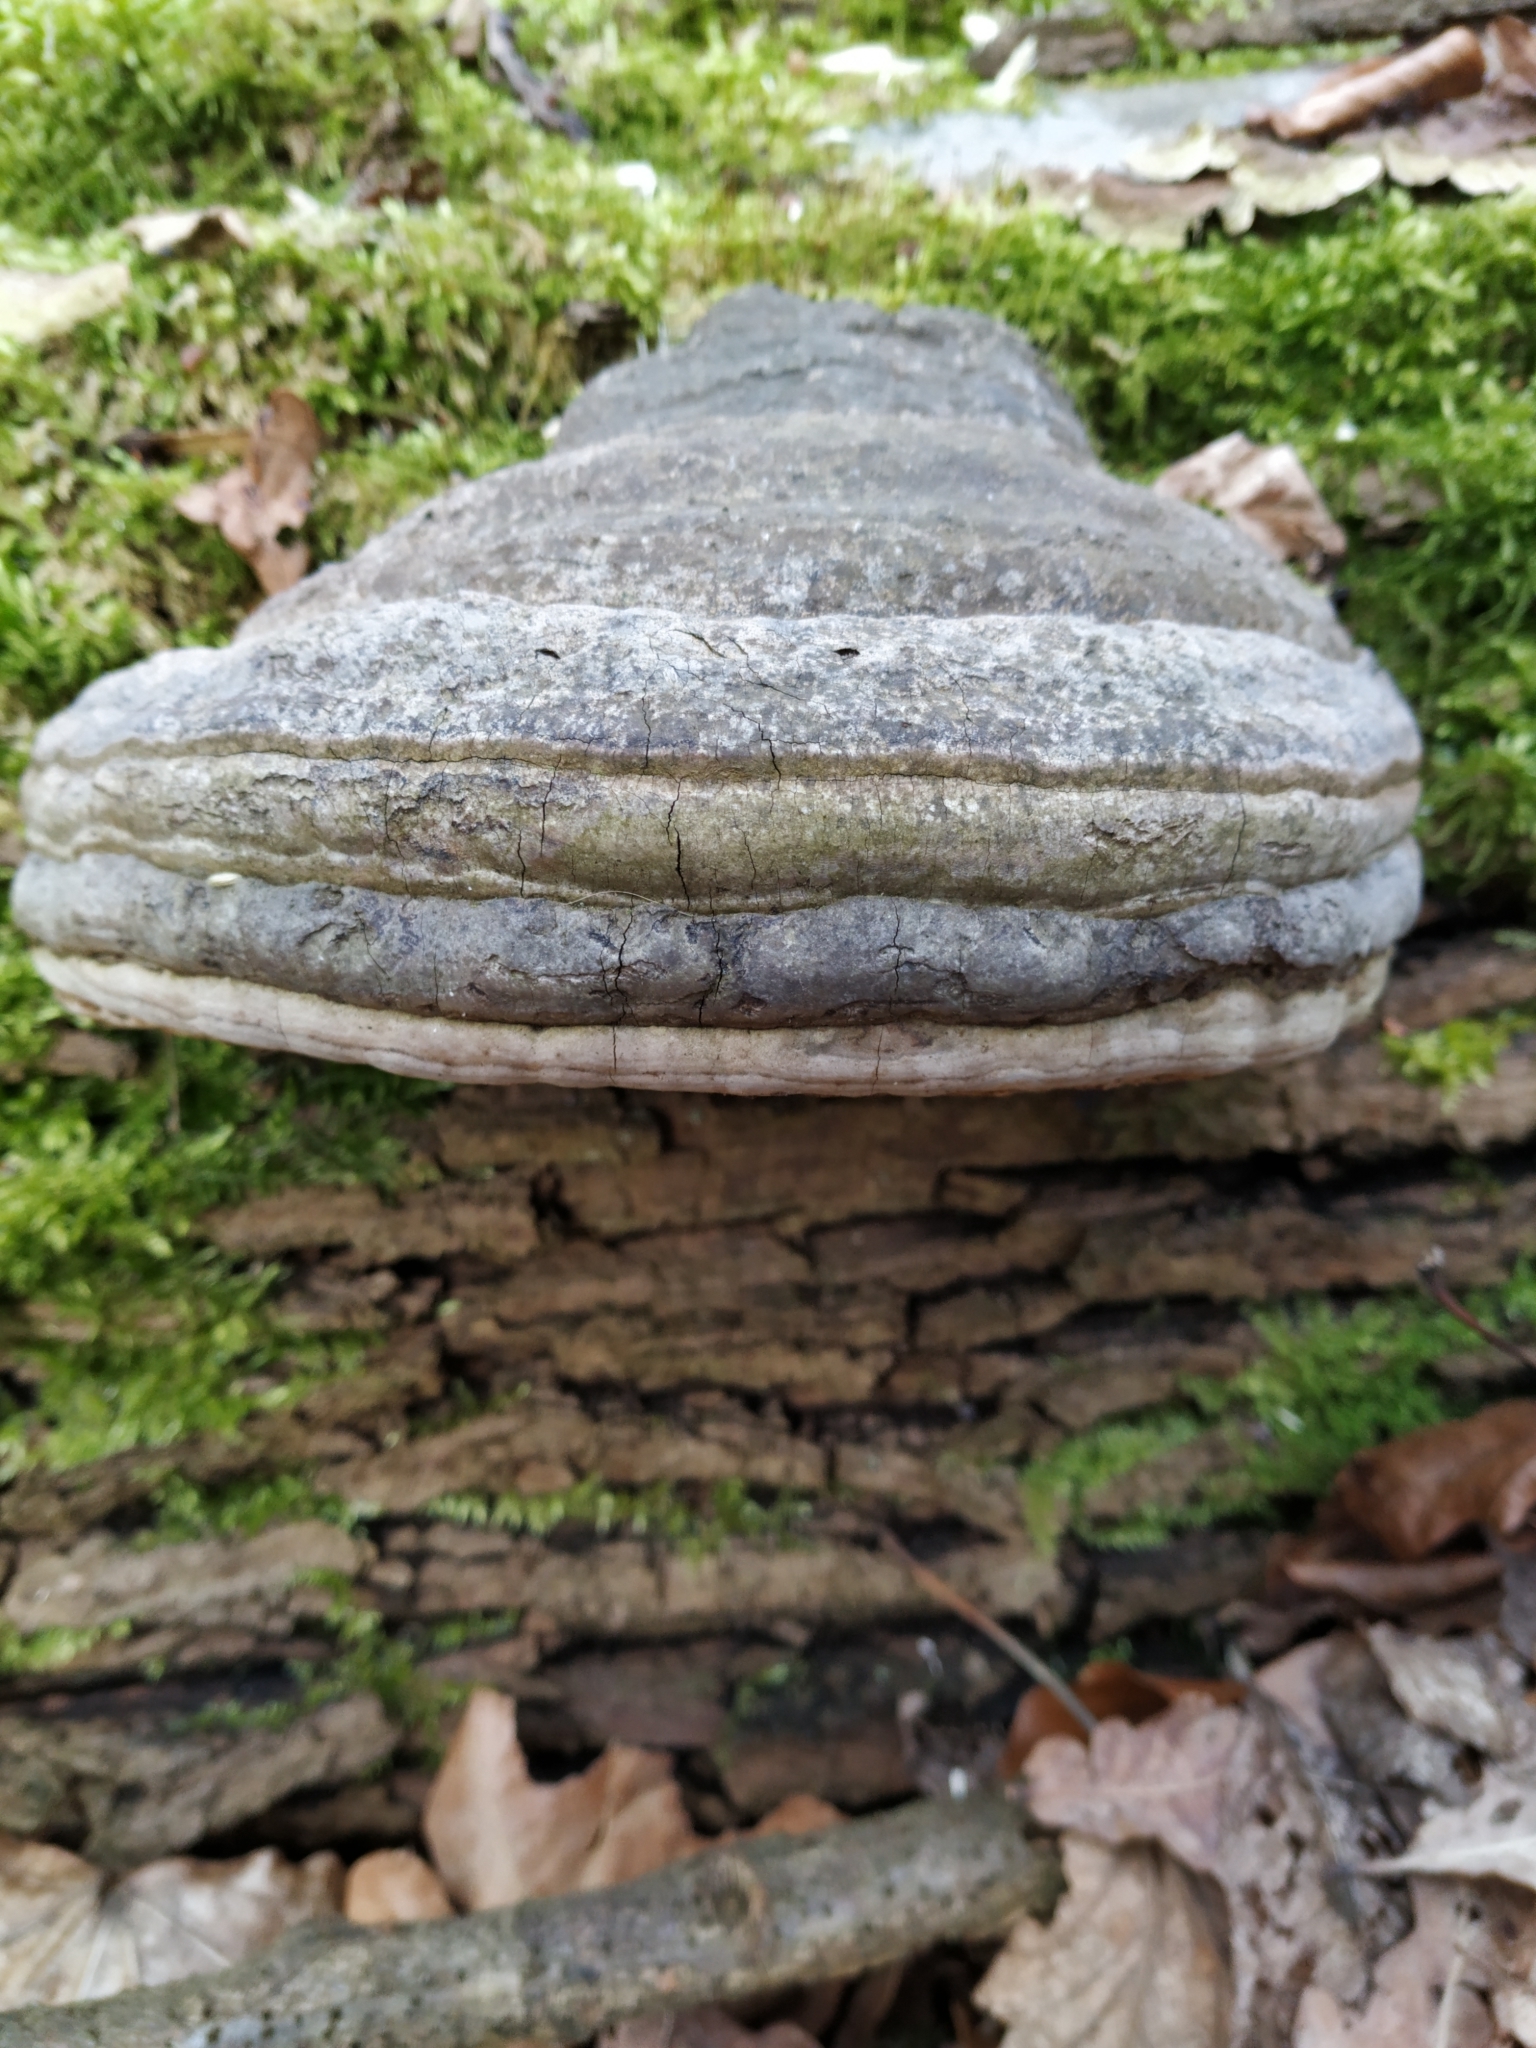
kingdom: Fungi
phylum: Basidiomycota
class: Agaricomycetes
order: Polyporales
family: Polyporaceae
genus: Fomes
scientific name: Fomes fomentarius
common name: Hoof fungus
